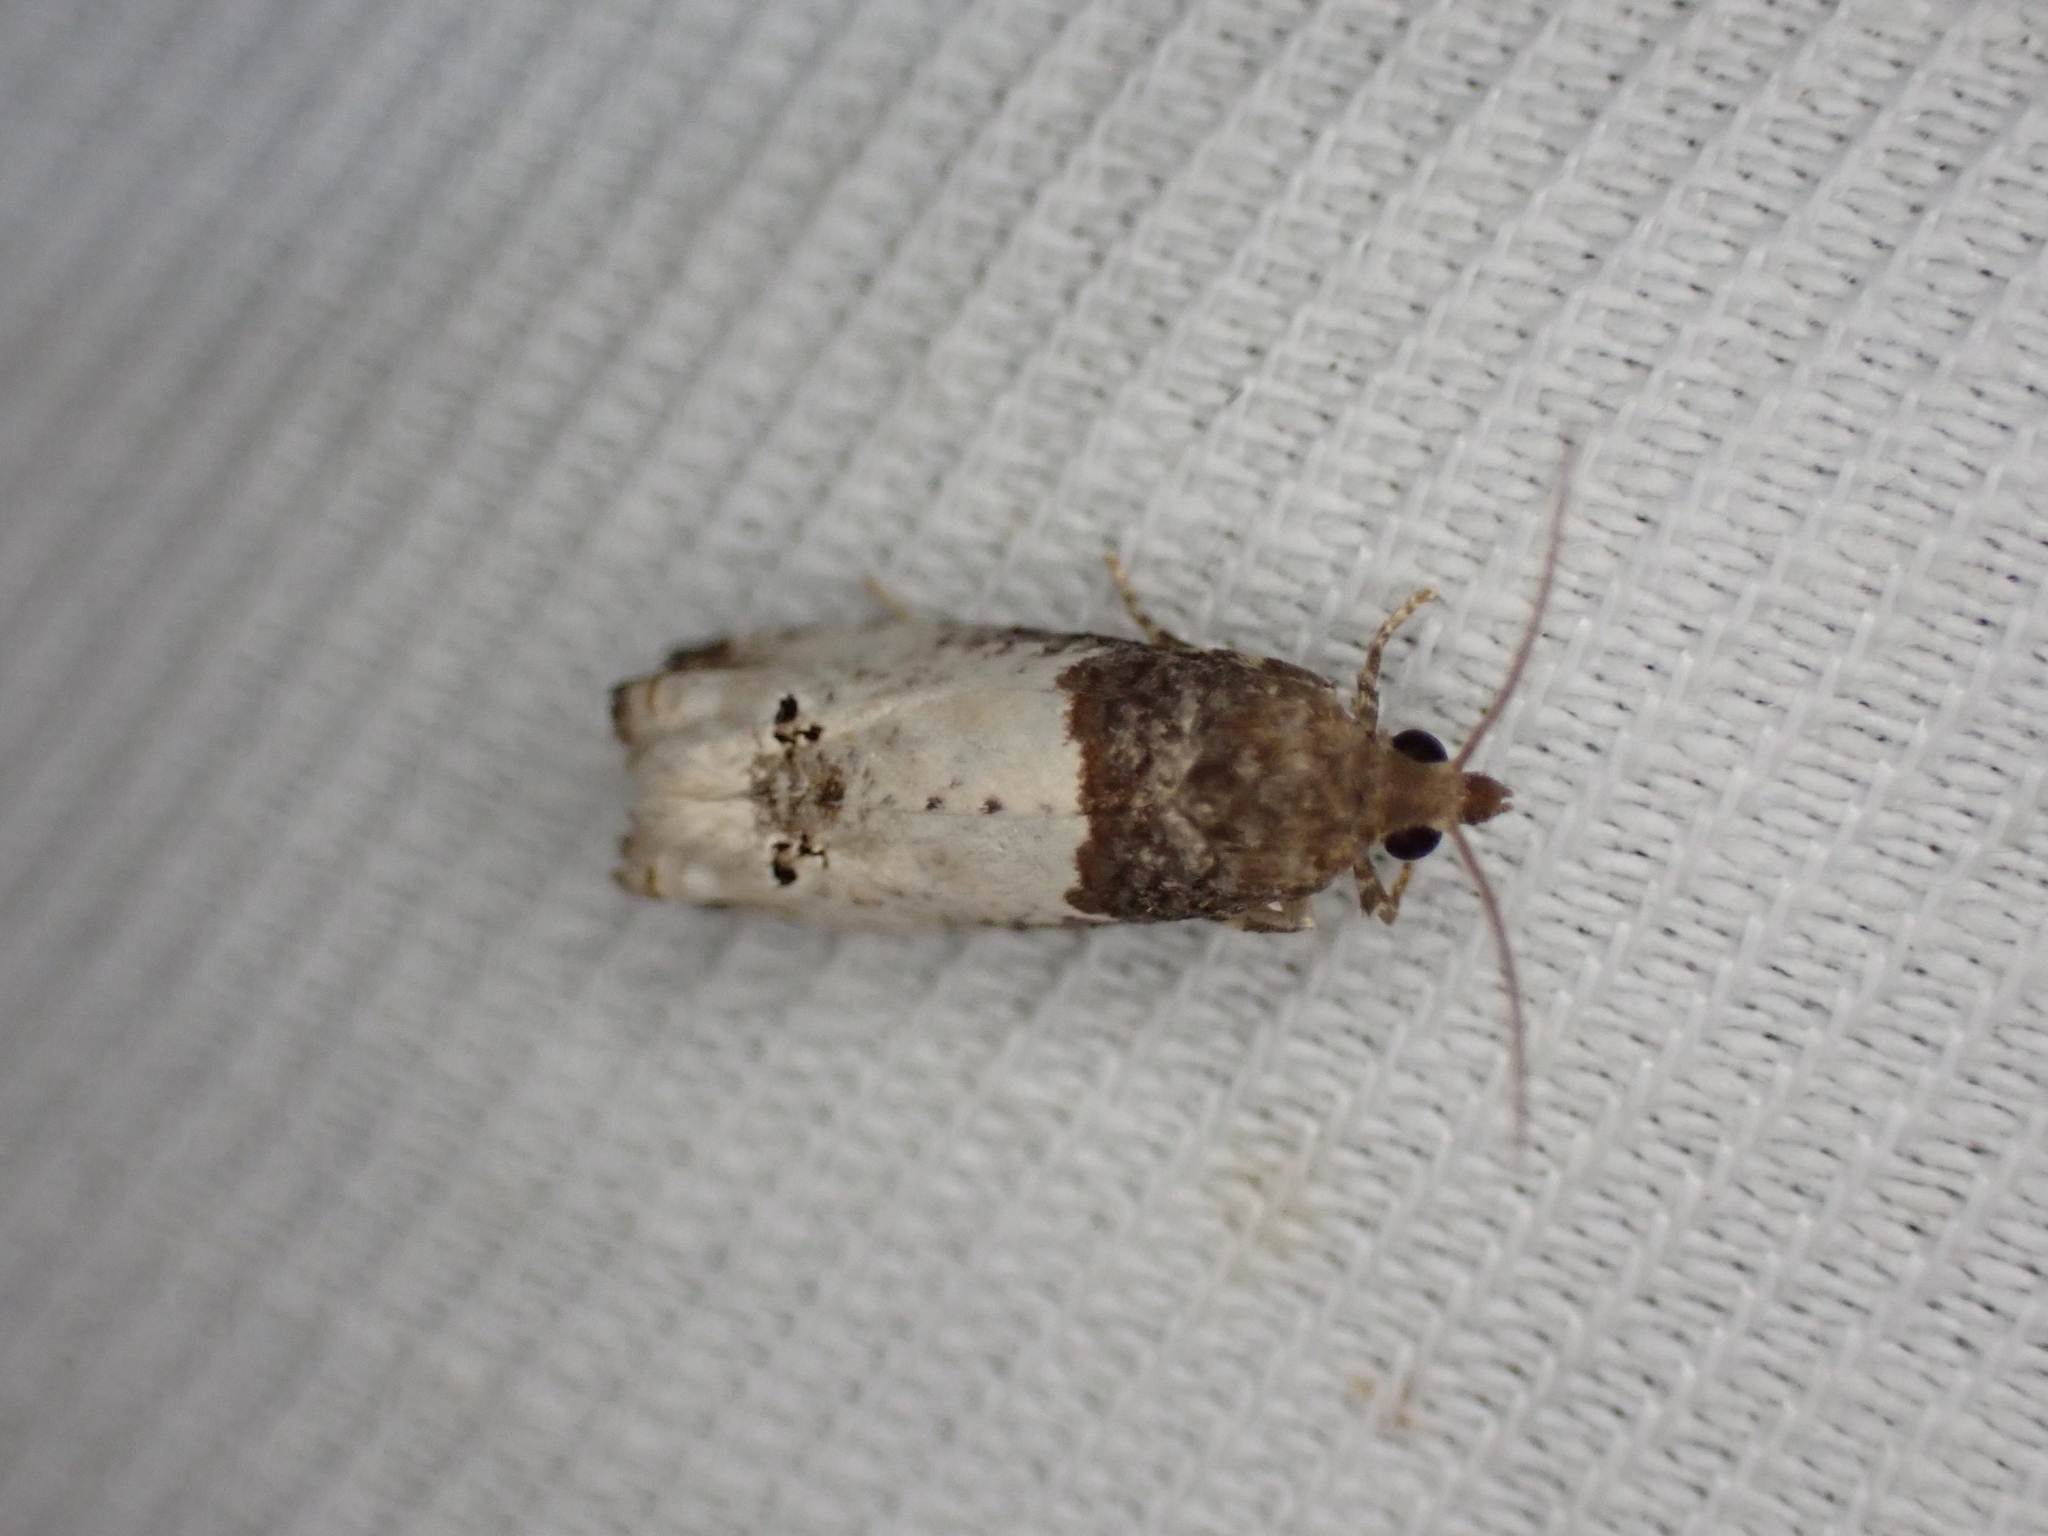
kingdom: Animalia
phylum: Arthropoda
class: Insecta
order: Lepidoptera
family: Tortricidae
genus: Epiblema
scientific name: Epiblema aquana
